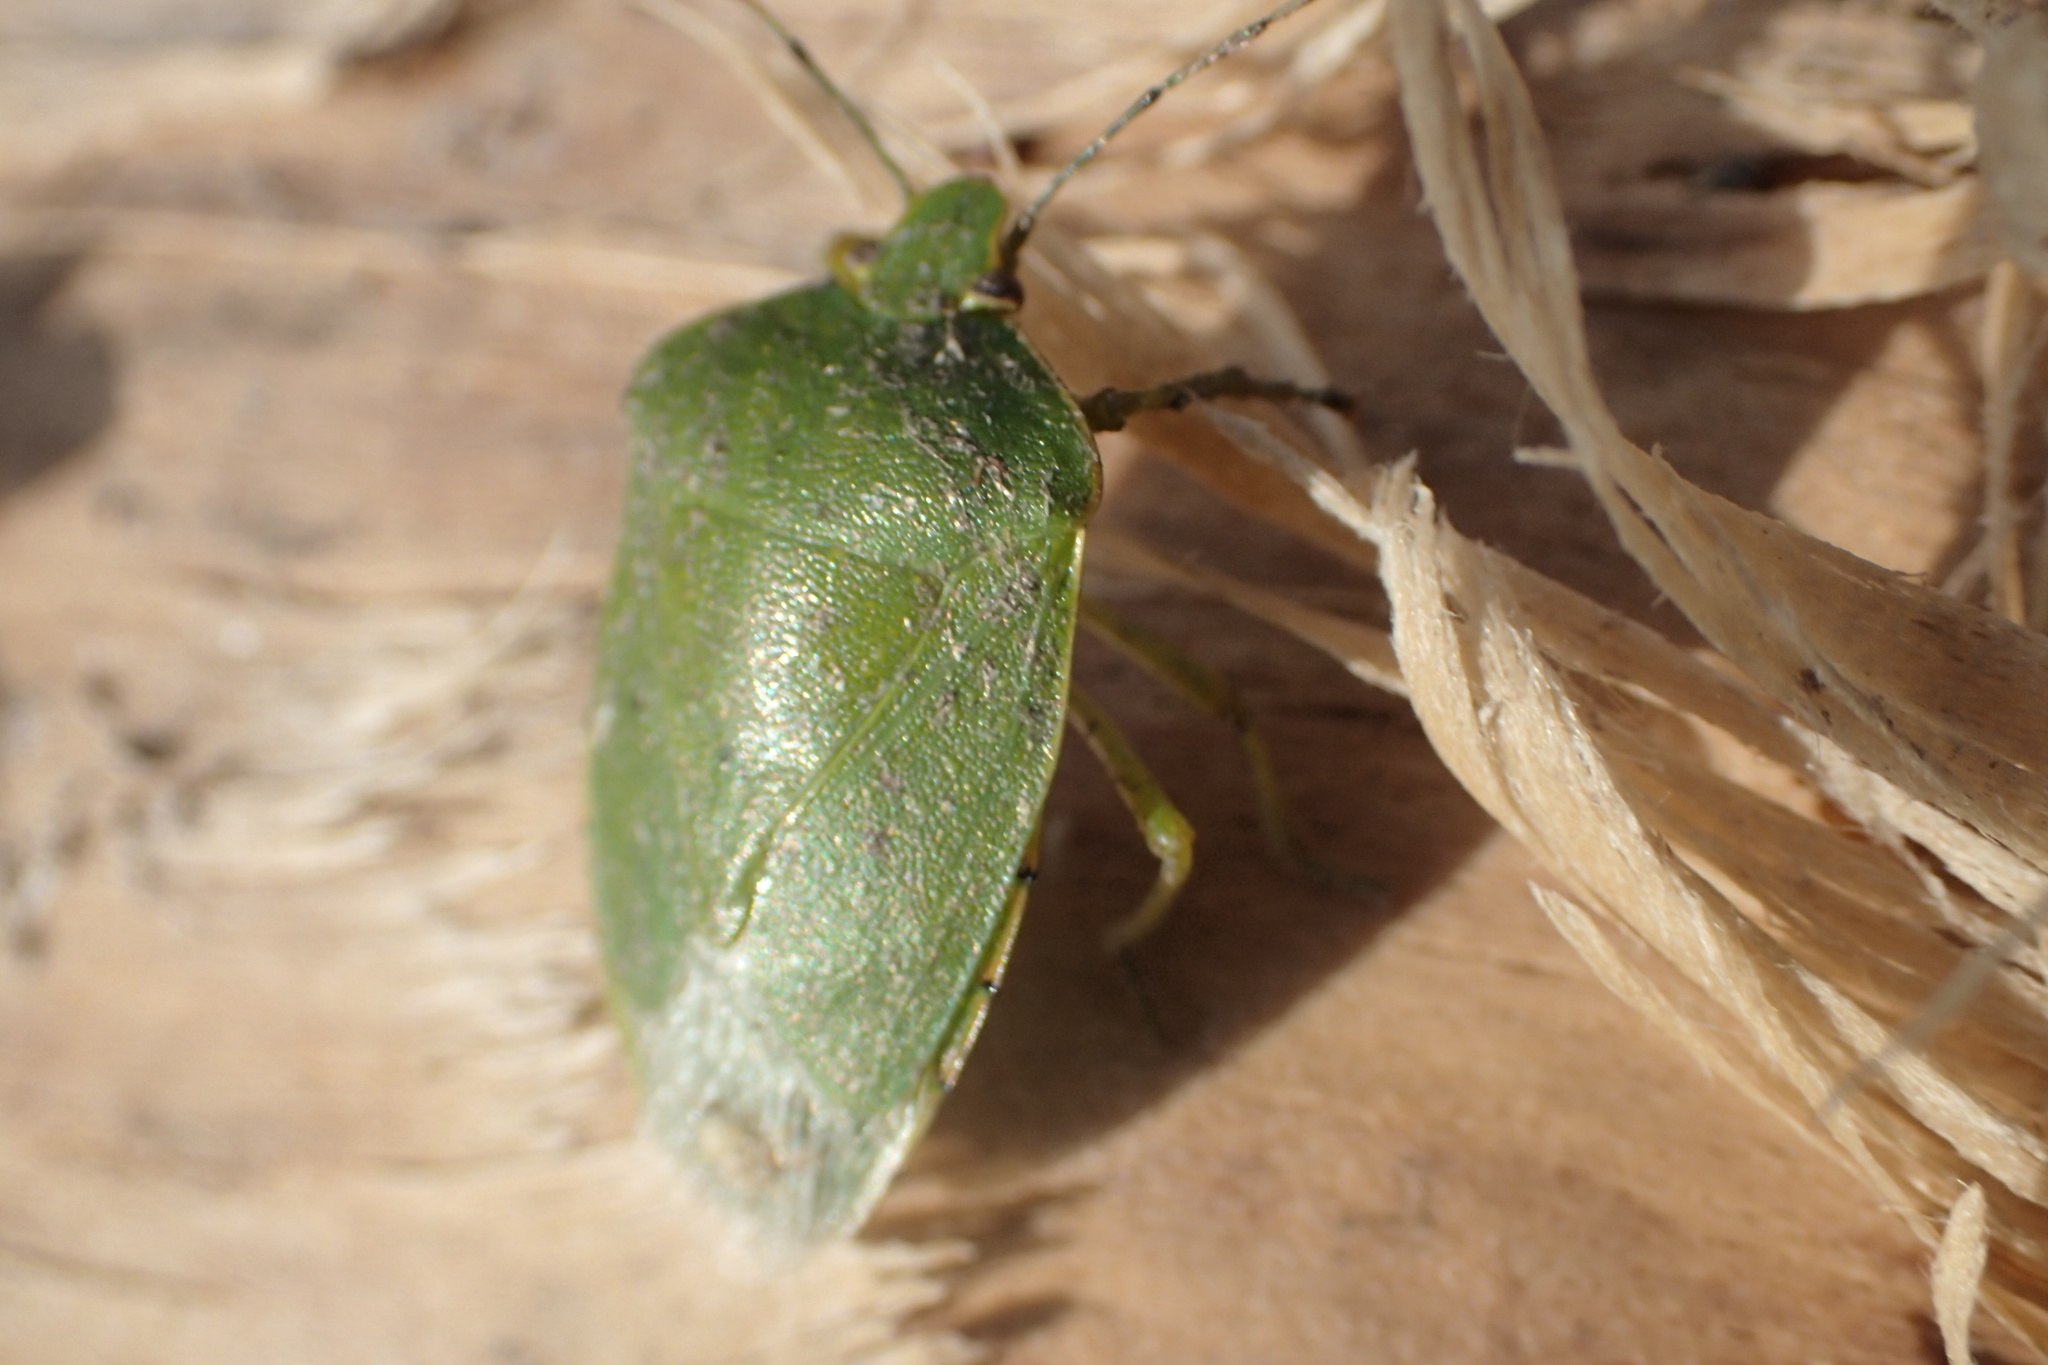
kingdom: Animalia
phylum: Arthropoda
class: Insecta
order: Hemiptera
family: Pentatomidae
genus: Chinavia
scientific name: Chinavia hilaris
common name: Green stink bug
